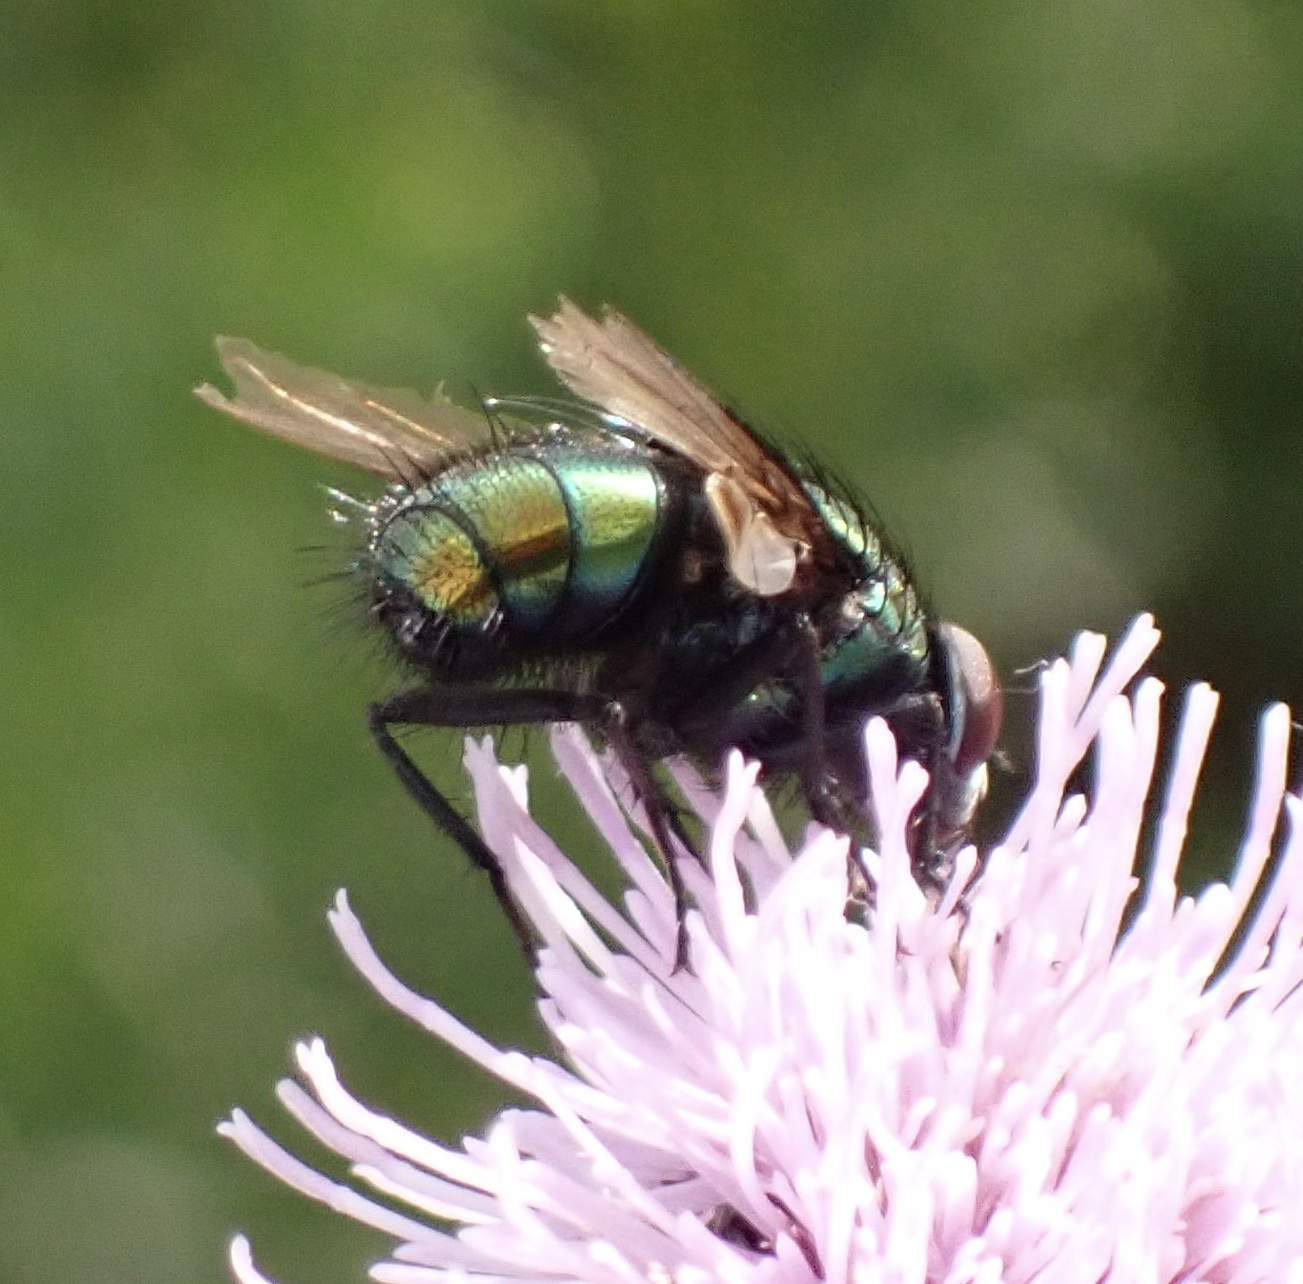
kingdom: Animalia
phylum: Arthropoda
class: Insecta
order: Diptera
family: Calliphoridae
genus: Lucilia
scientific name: Lucilia silvarum
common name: Marsh greenbottle
